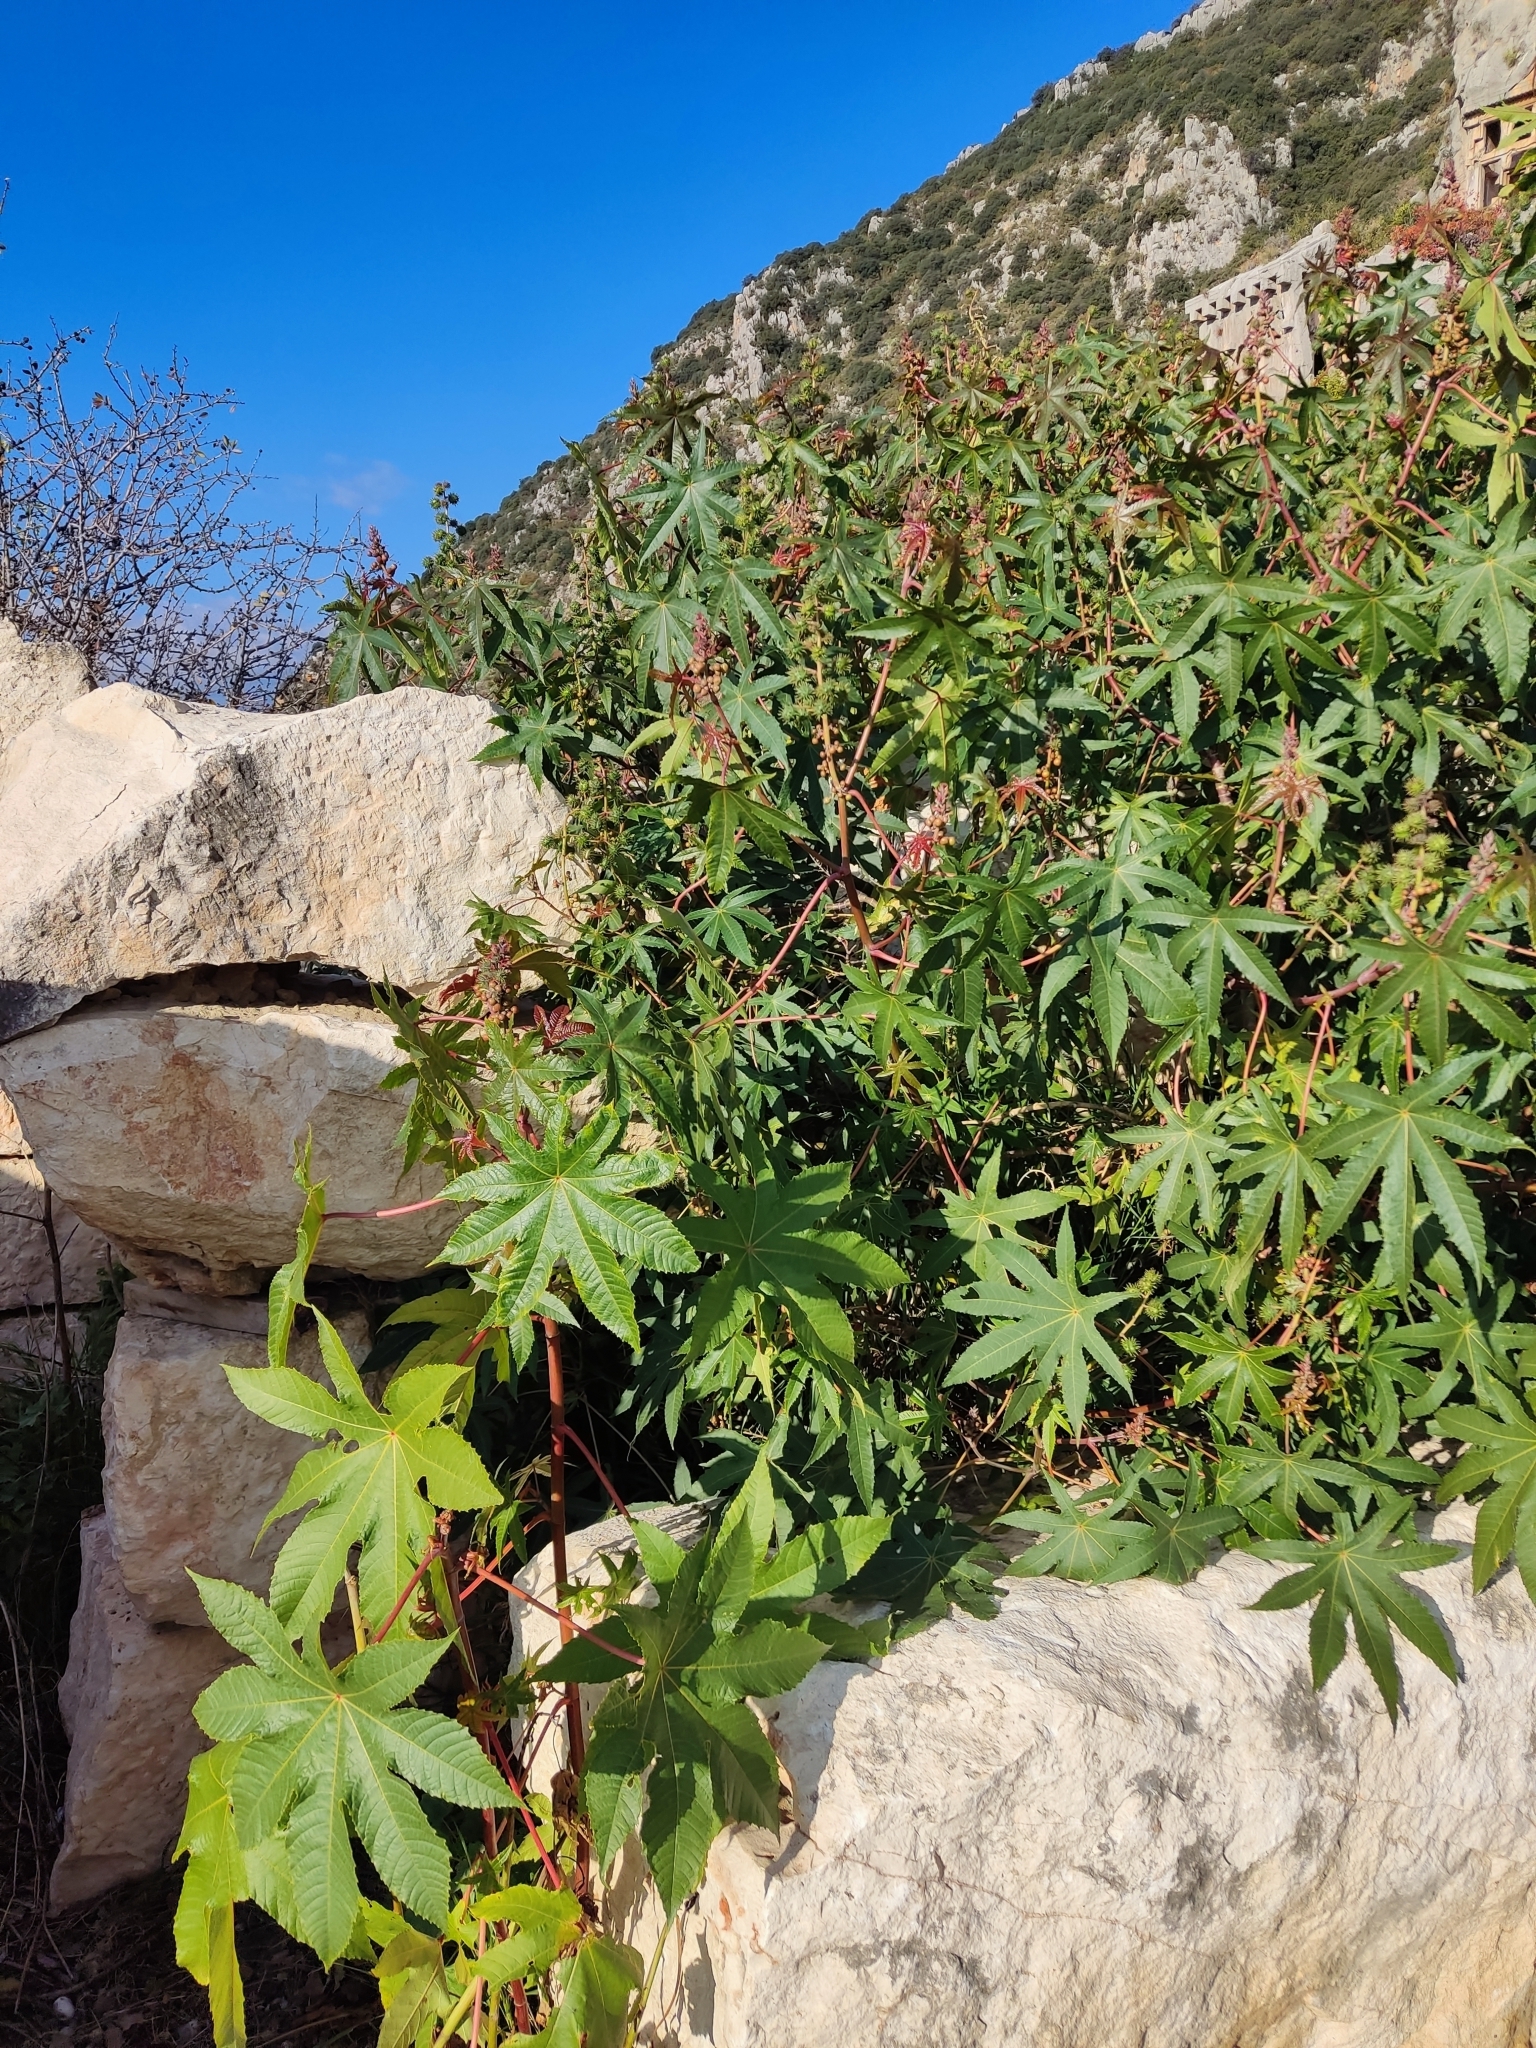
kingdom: Plantae
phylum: Tracheophyta
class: Magnoliopsida
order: Malpighiales
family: Euphorbiaceae
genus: Ricinus
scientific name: Ricinus communis
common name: Castor-oil-plant
